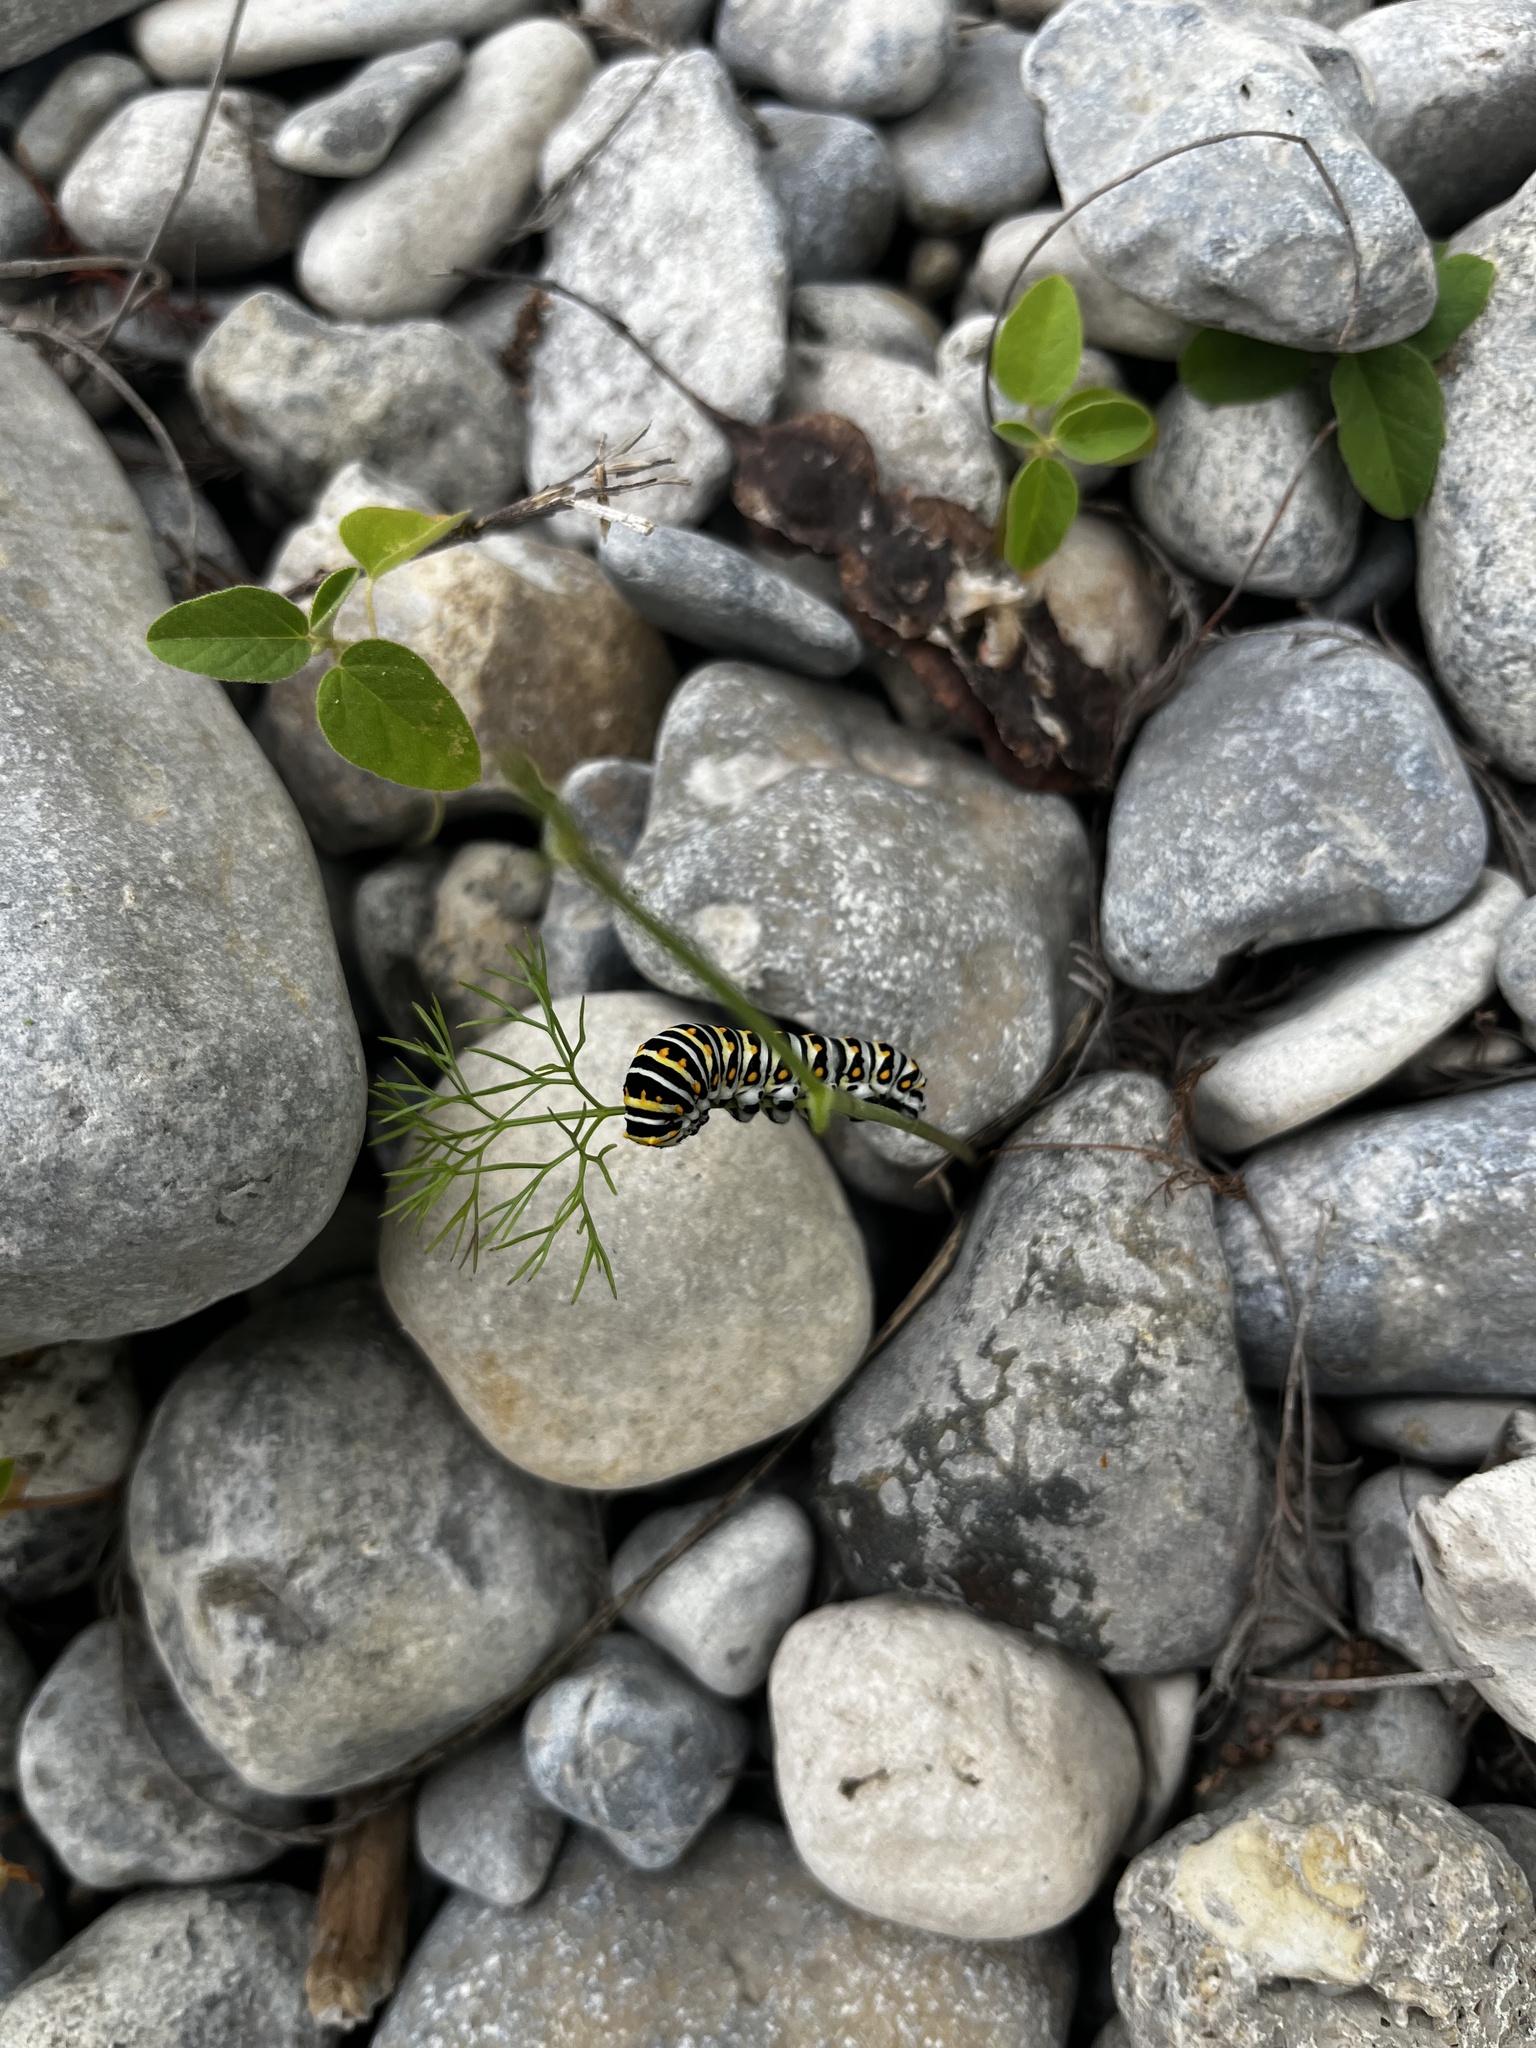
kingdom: Animalia
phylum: Arthropoda
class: Insecta
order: Lepidoptera
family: Papilionidae
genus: Papilio
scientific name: Papilio polyxenes
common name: Black swallowtail
